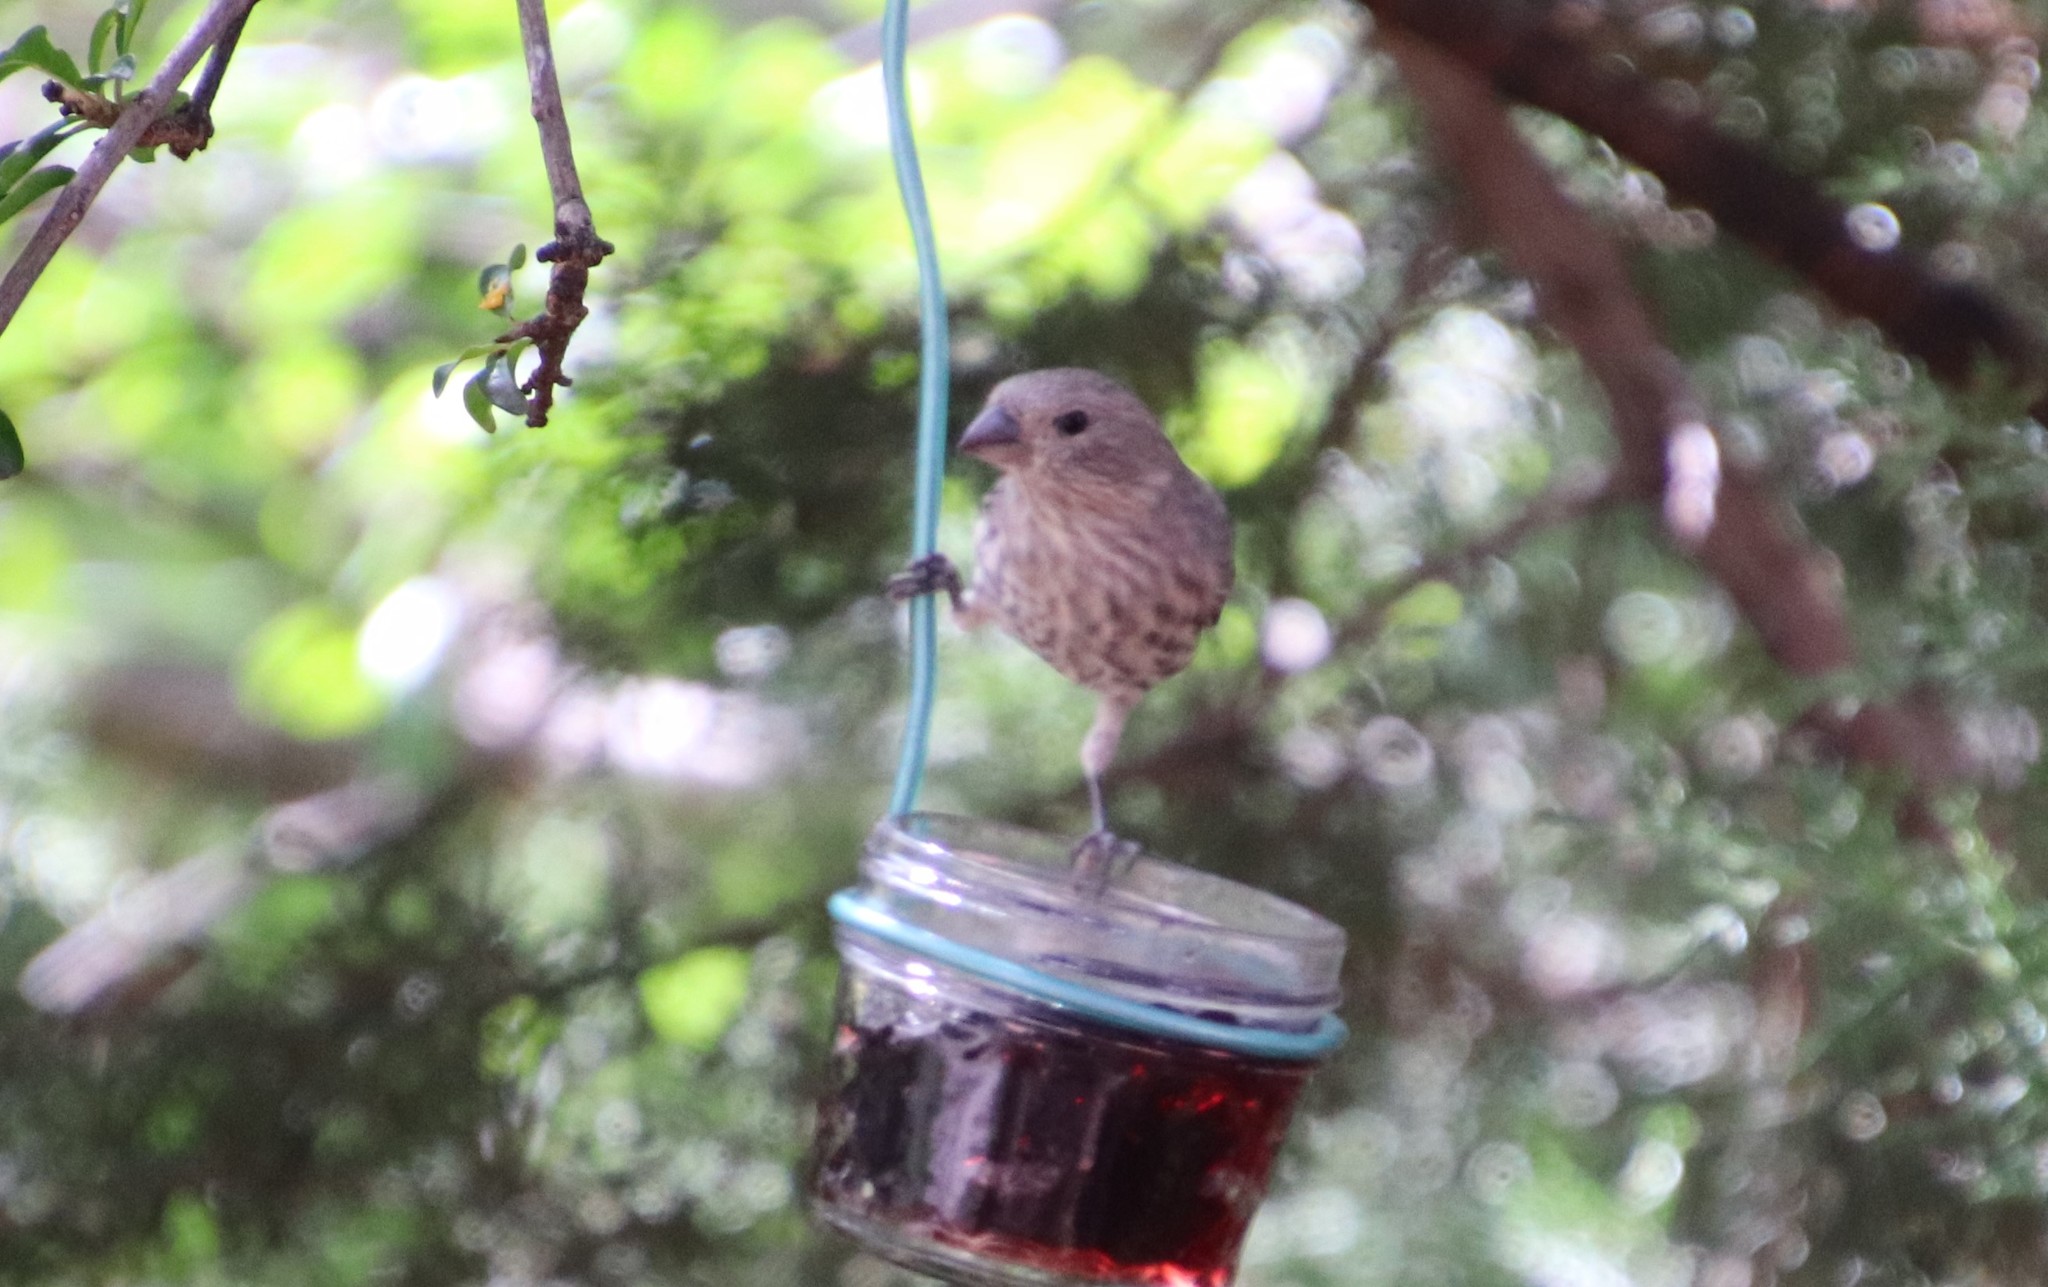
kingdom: Animalia
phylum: Chordata
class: Aves
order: Passeriformes
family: Fringillidae
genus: Haemorhous
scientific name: Haemorhous mexicanus
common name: House finch
